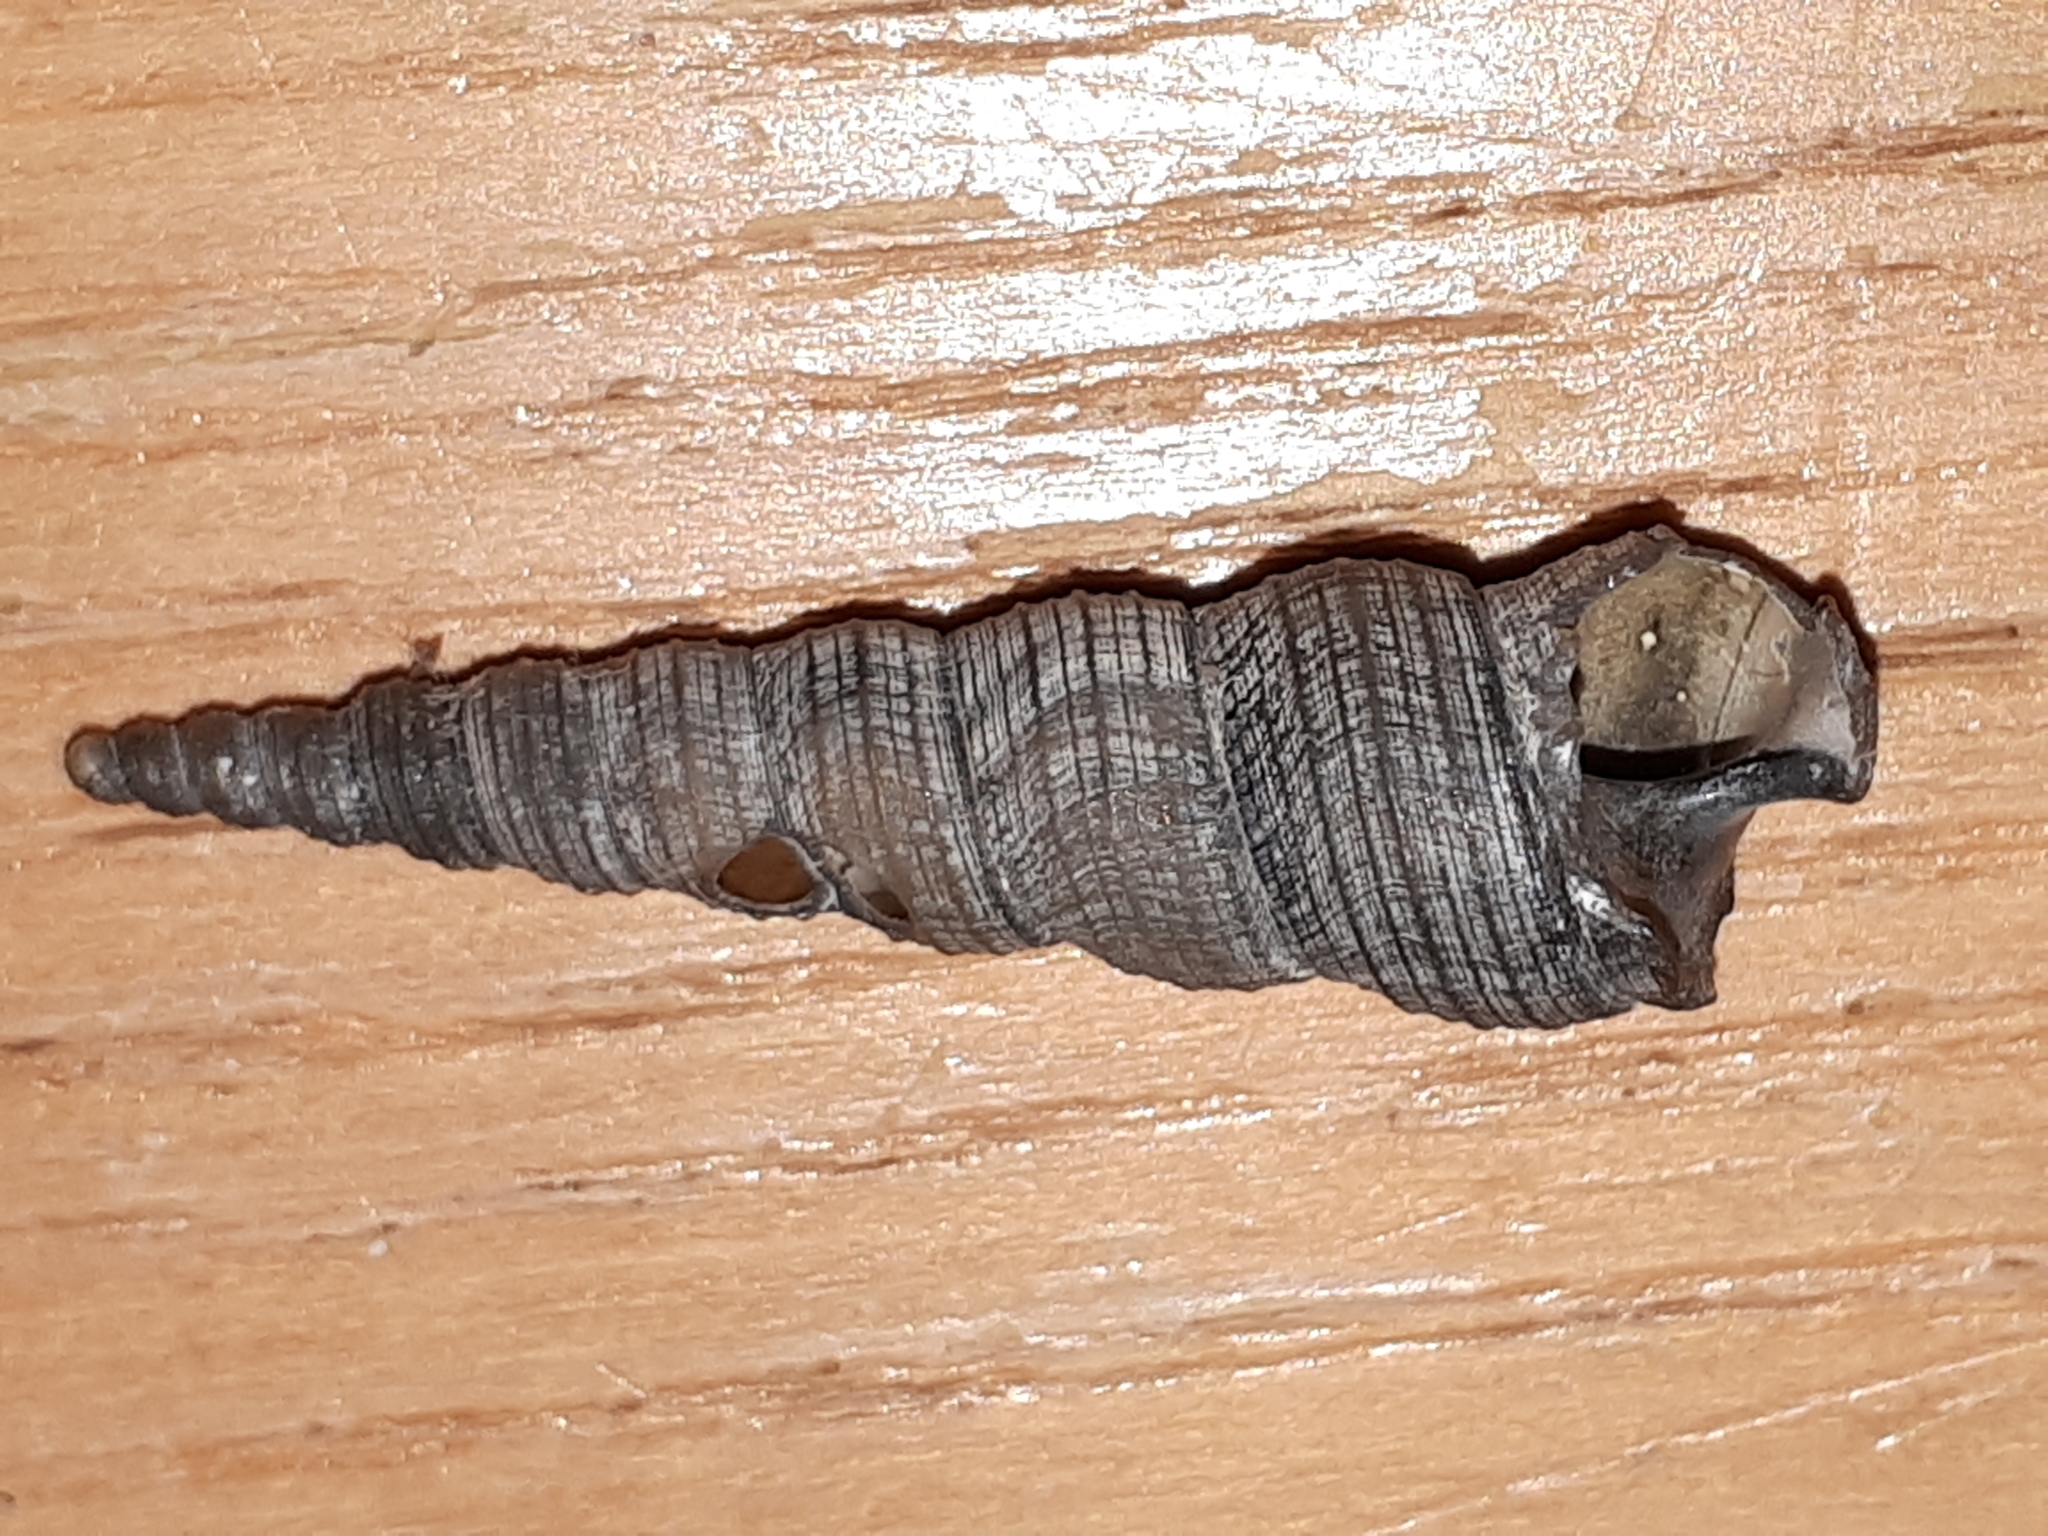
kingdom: Animalia
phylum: Mollusca
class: Gastropoda
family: Turritellidae
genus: Turritellinella
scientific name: Turritellinella tricarinata
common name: Auger shell
